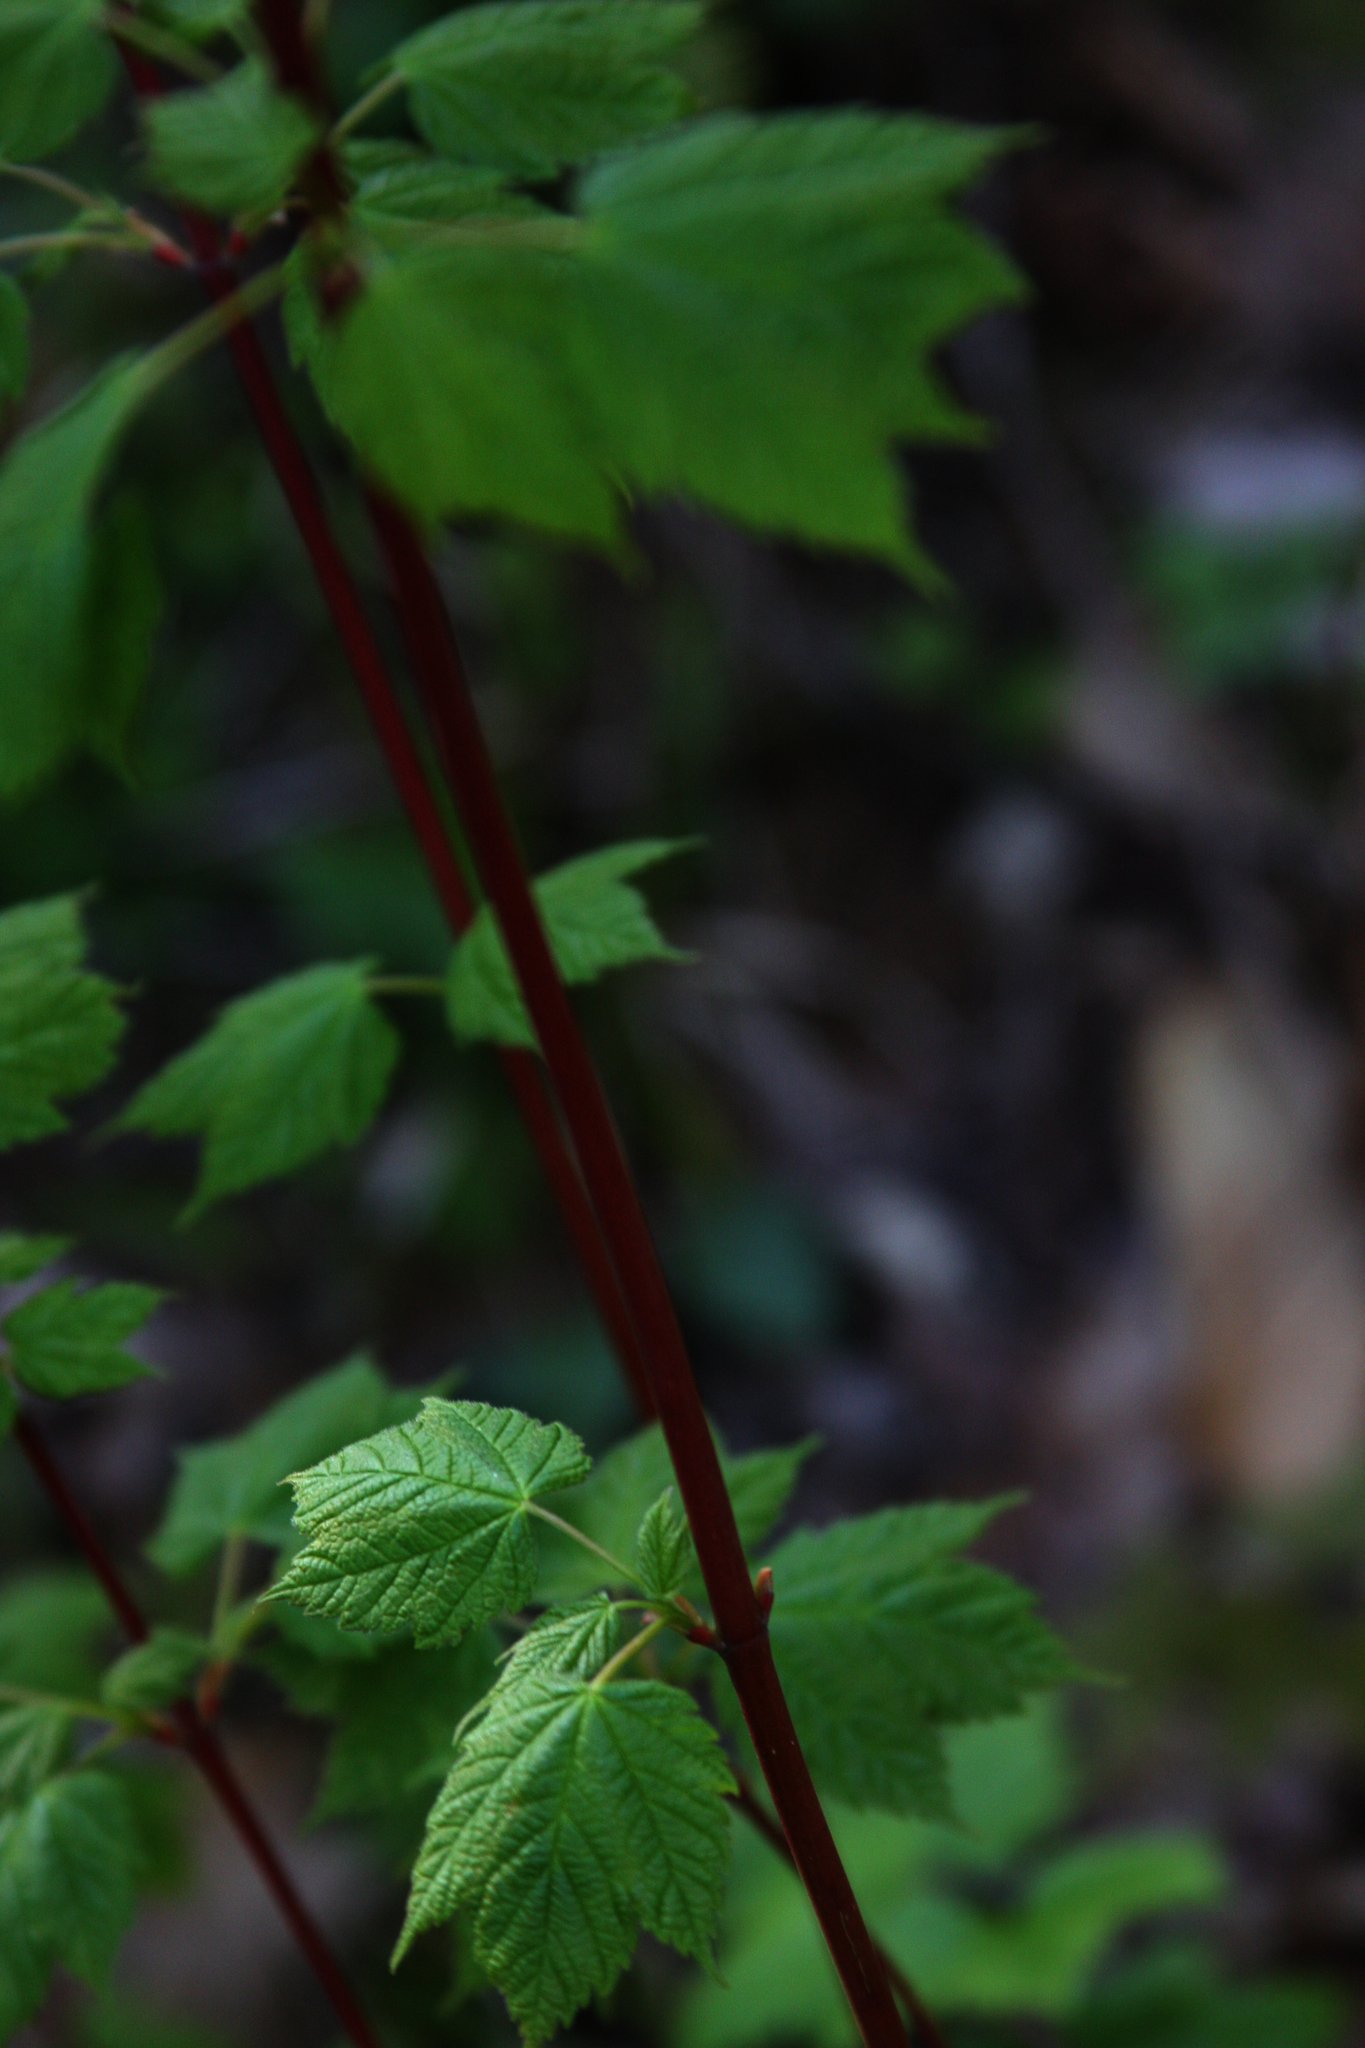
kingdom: Plantae
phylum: Tracheophyta
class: Magnoliopsida
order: Sapindales
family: Sapindaceae
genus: Acer
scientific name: Acer rubrum
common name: Red maple
